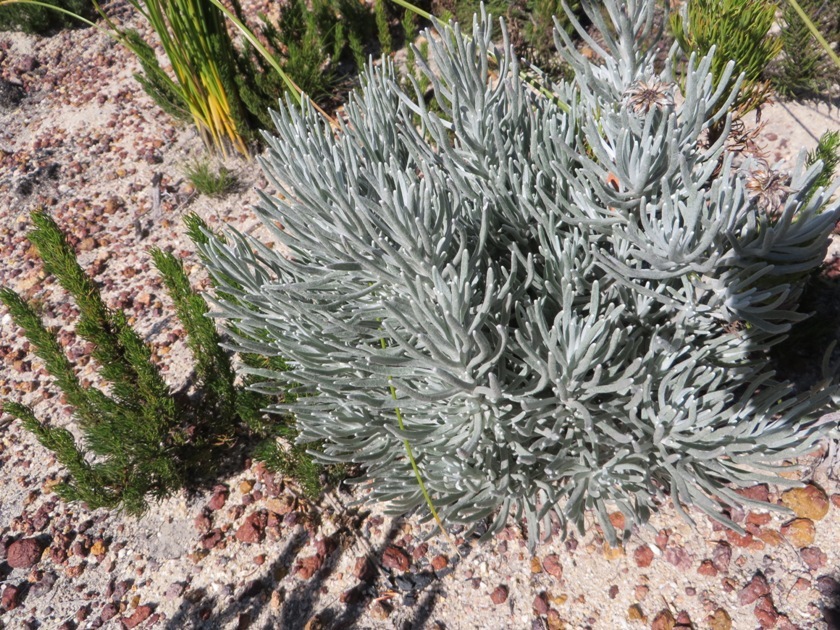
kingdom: Plantae
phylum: Tracheophyta
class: Magnoliopsida
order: Asterales
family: Asteraceae
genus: Syncarpha
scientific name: Syncarpha gnaphaloides
